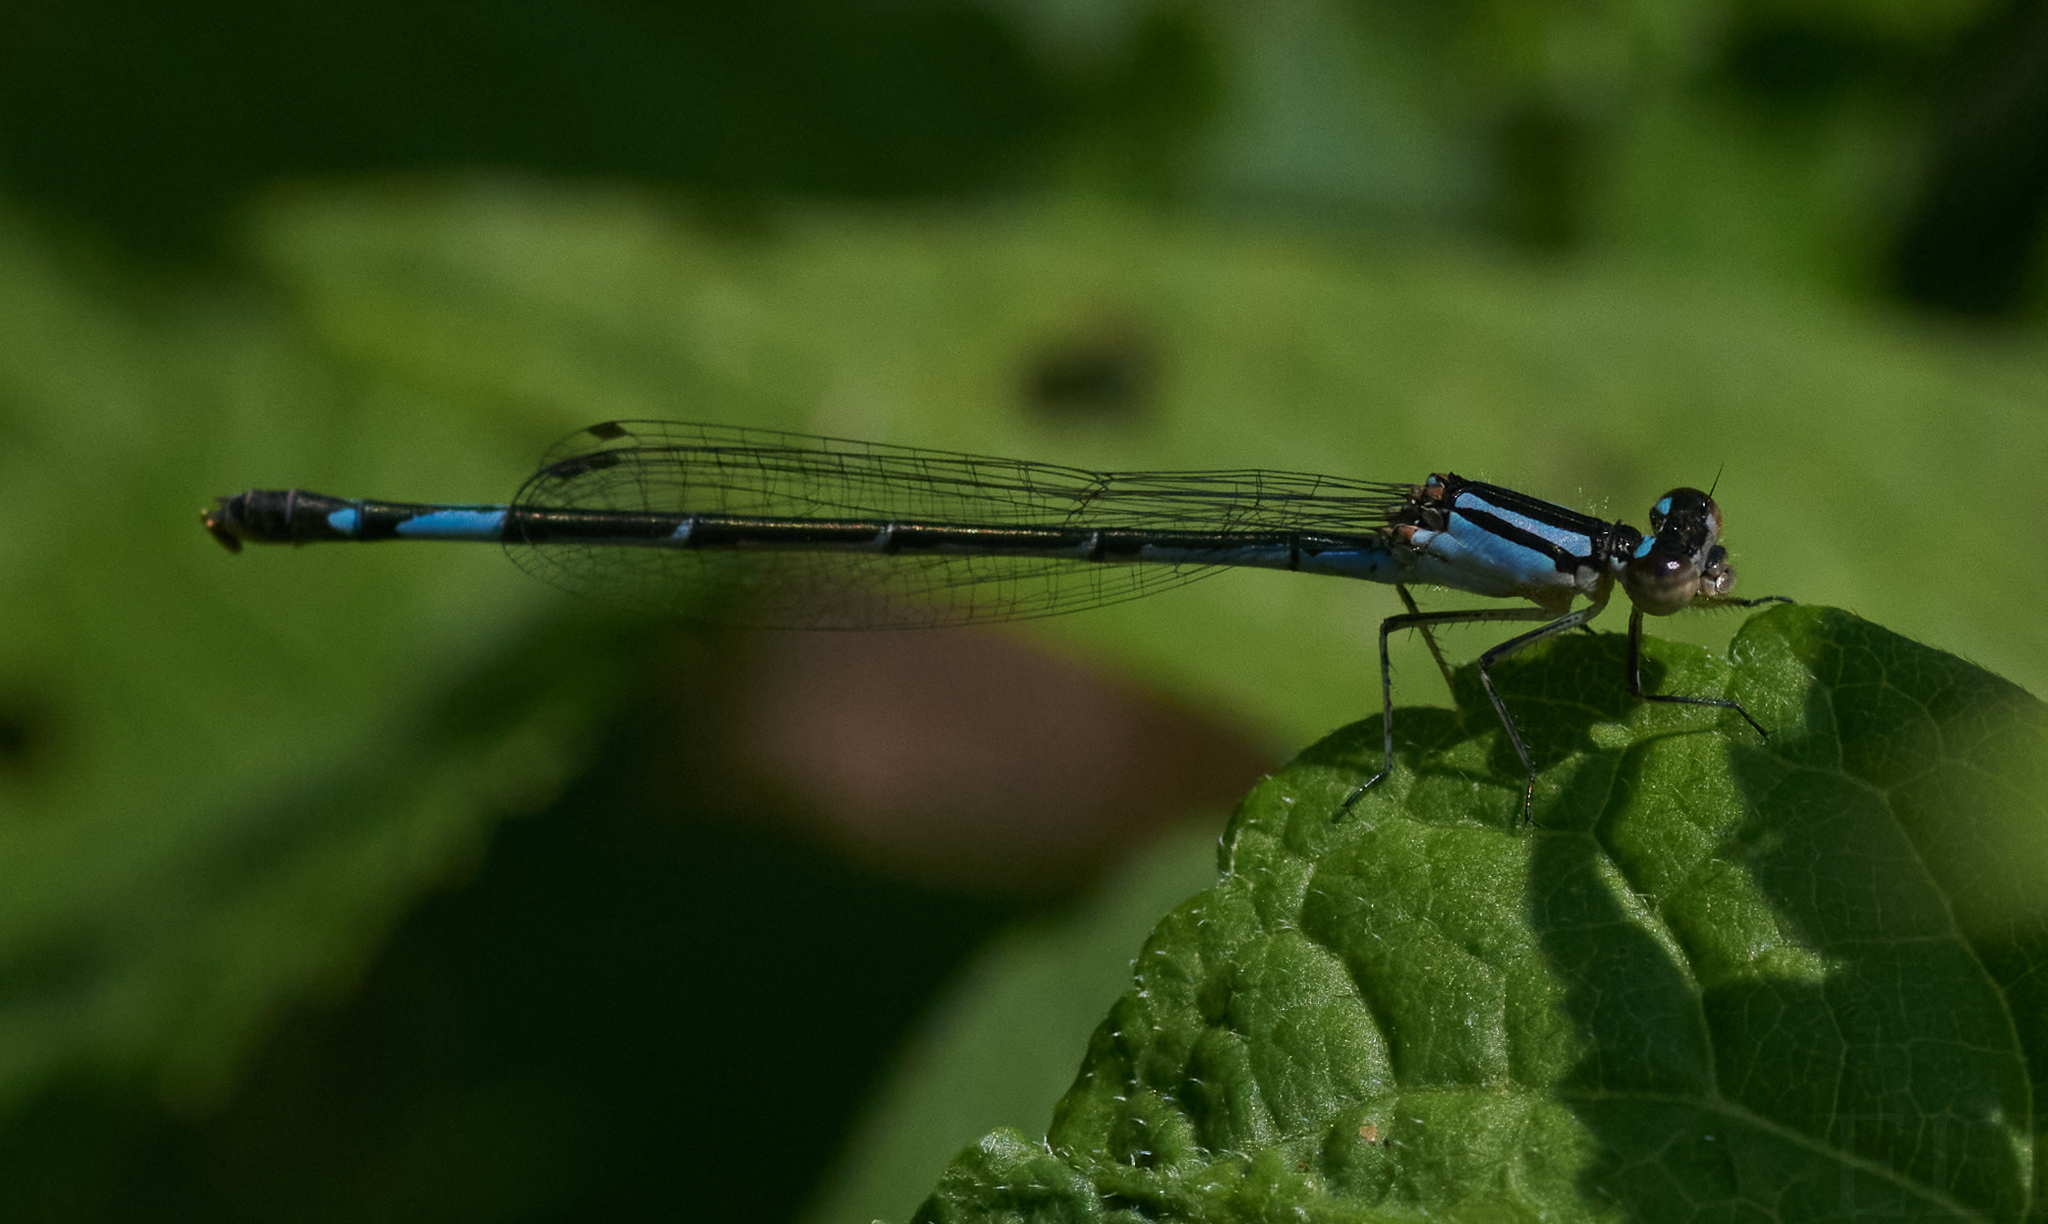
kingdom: Animalia
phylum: Arthropoda
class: Insecta
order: Odonata
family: Coenagrionidae
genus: Enallagma
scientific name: Enallagma aspersum
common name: Azure bluet
